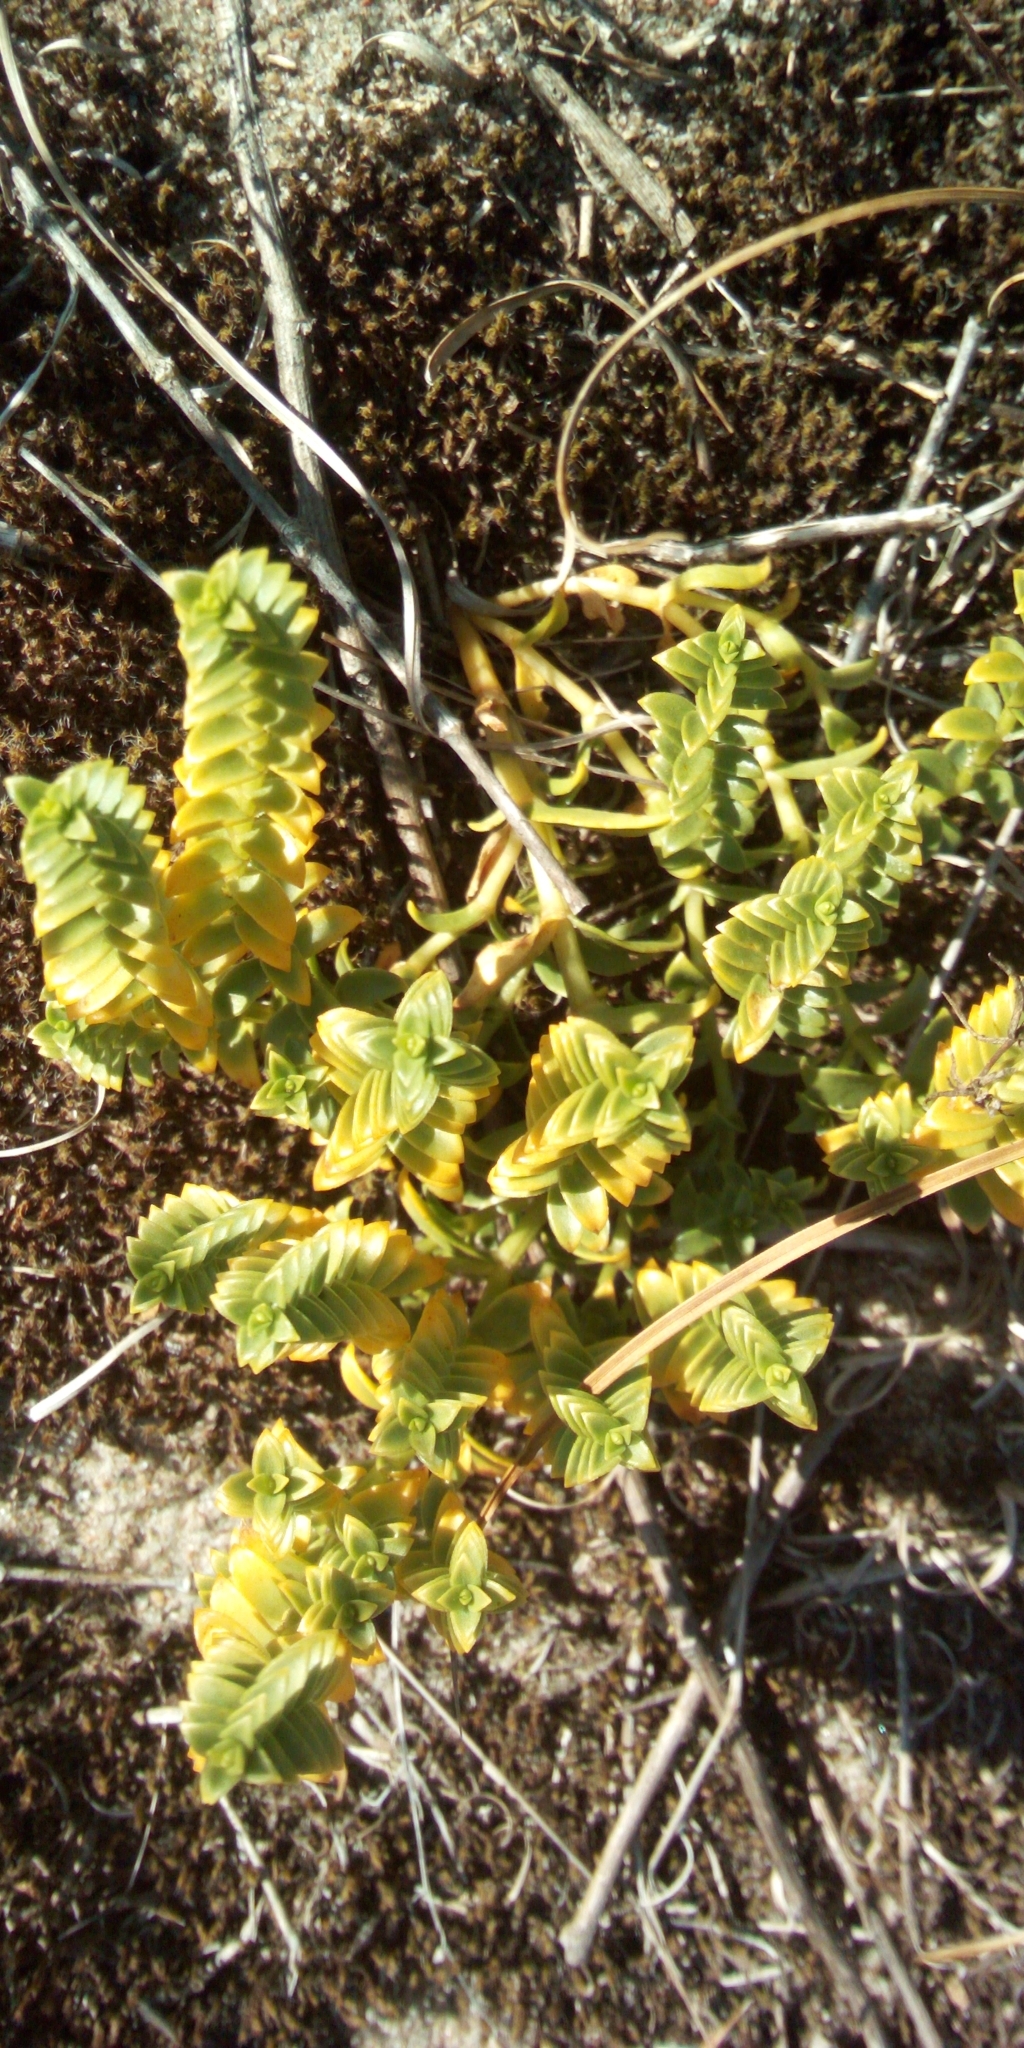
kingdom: Plantae
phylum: Tracheophyta
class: Magnoliopsida
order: Caryophyllales
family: Caryophyllaceae
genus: Honckenya
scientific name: Honckenya peploides
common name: Sea sandwort
